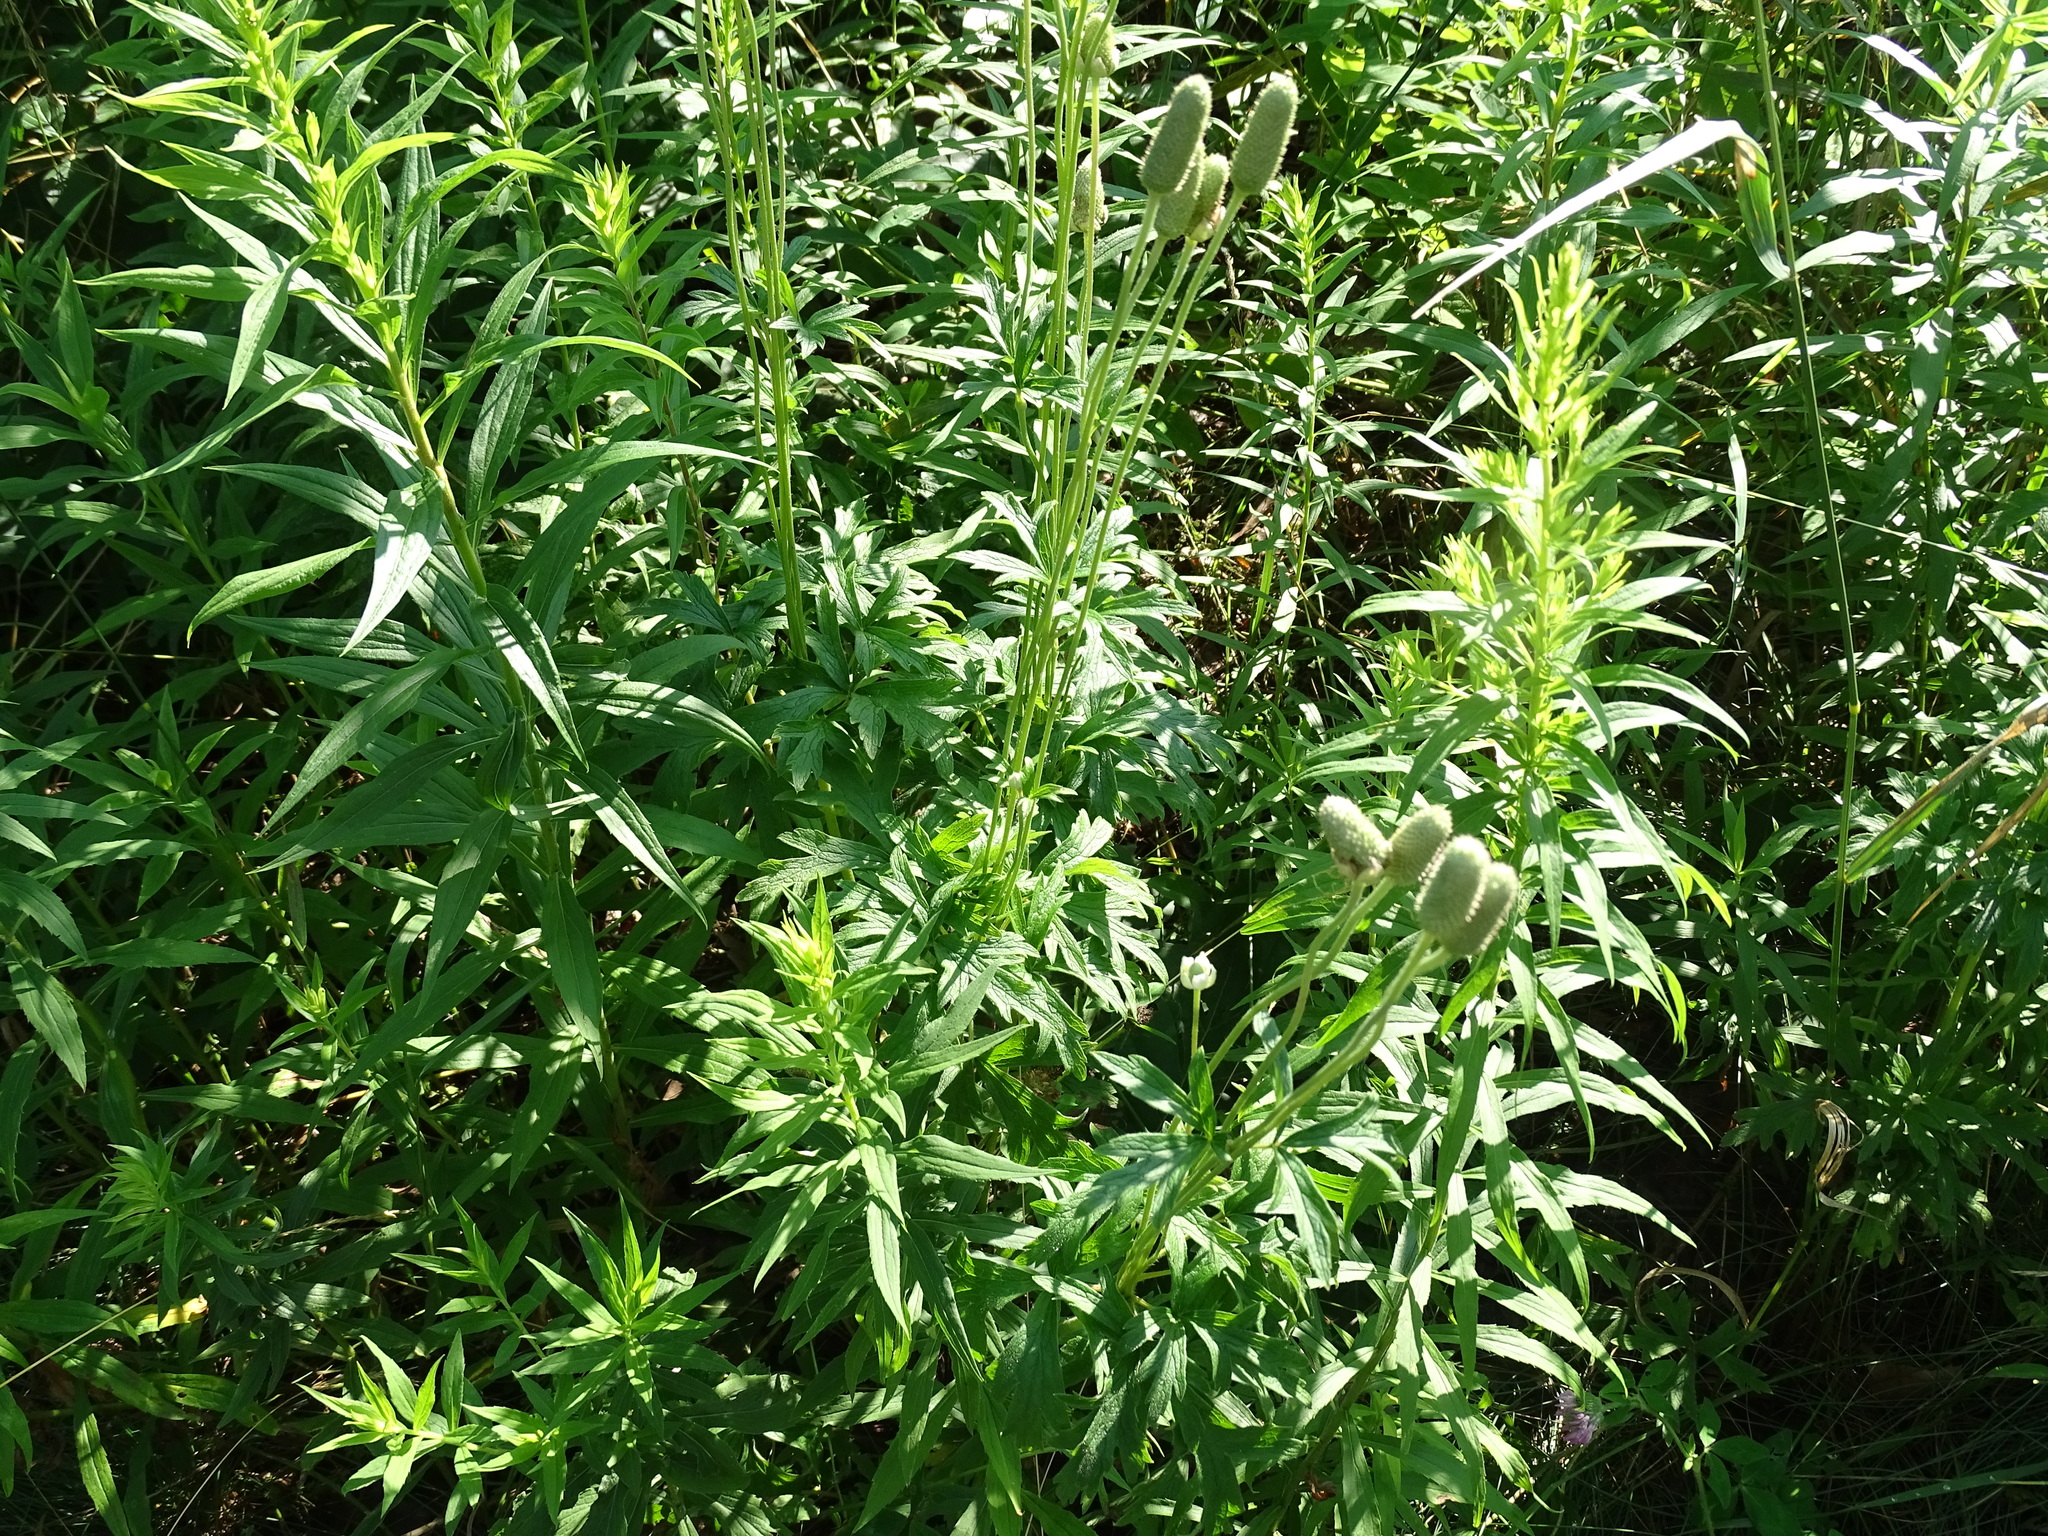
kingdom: Plantae
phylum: Tracheophyta
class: Magnoliopsida
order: Ranunculales
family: Ranunculaceae
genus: Anemone
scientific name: Anemone cylindrica
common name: Candle anemone
